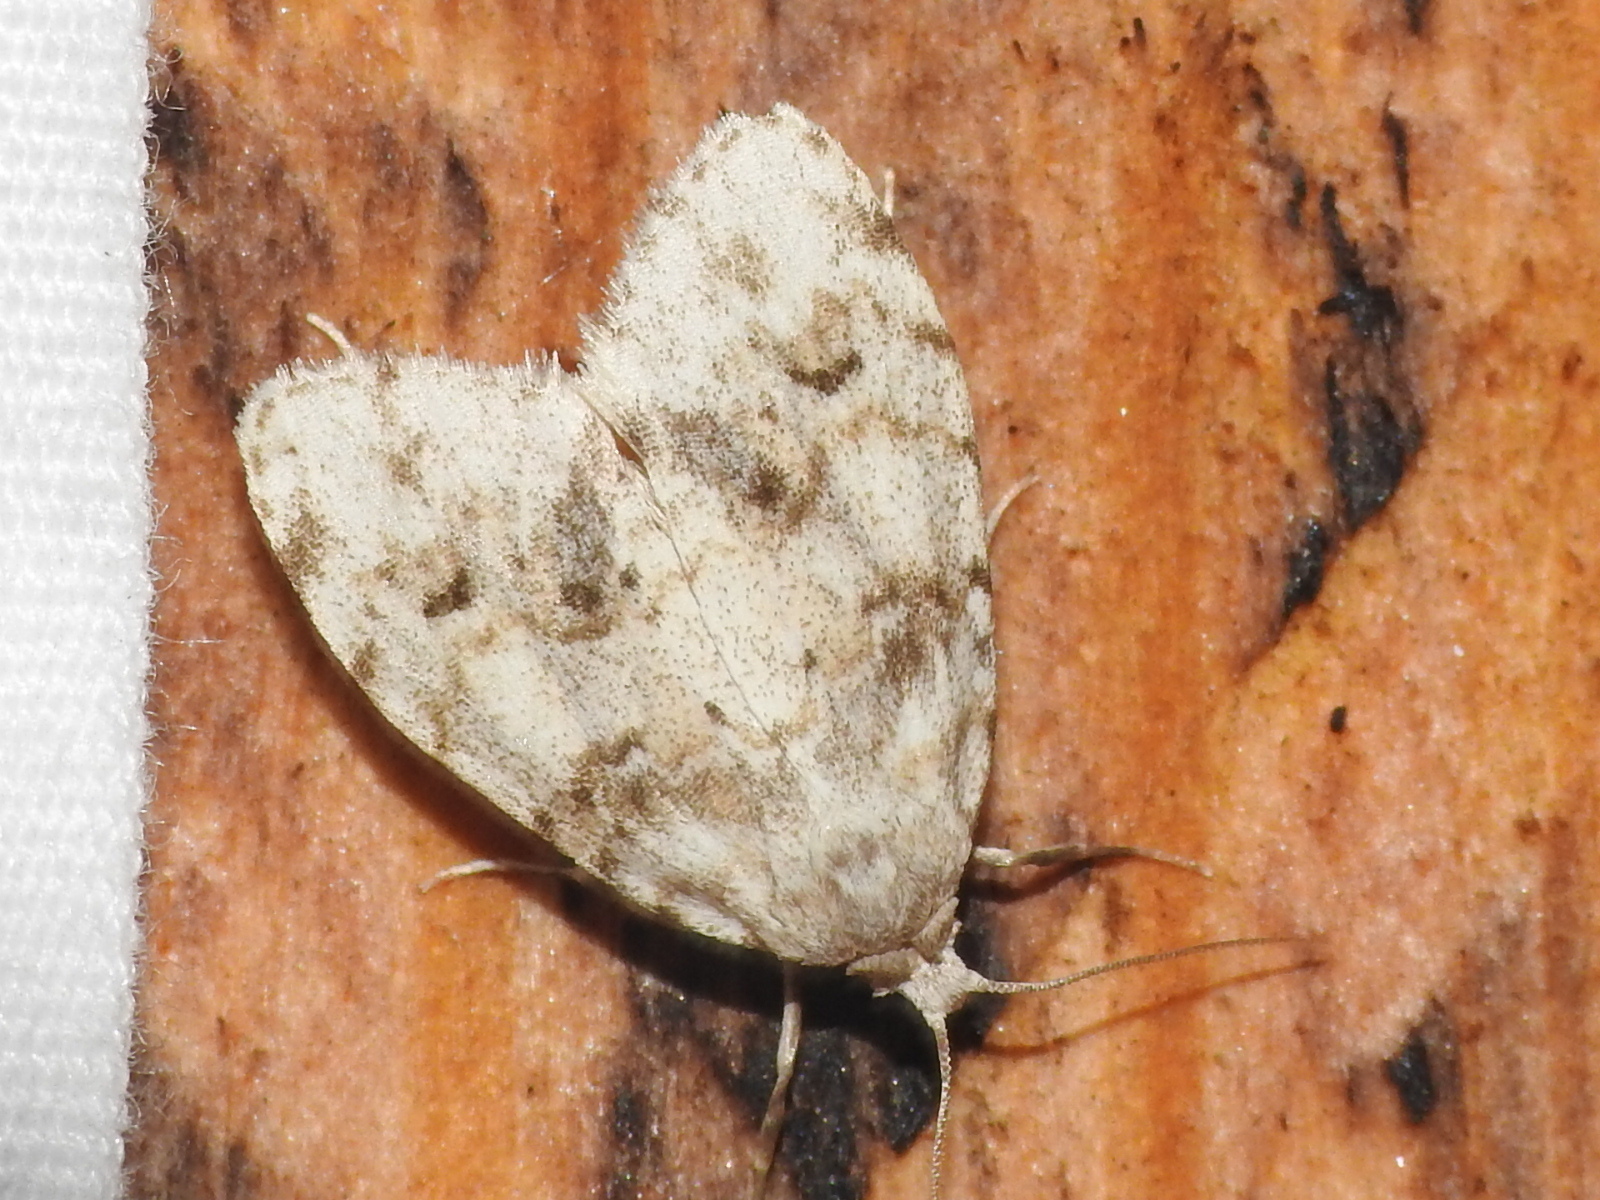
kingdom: Animalia
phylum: Arthropoda
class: Insecta
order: Lepidoptera
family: Erebidae
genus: Clemensia
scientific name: Clemensia albata
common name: Little white lichen moth
